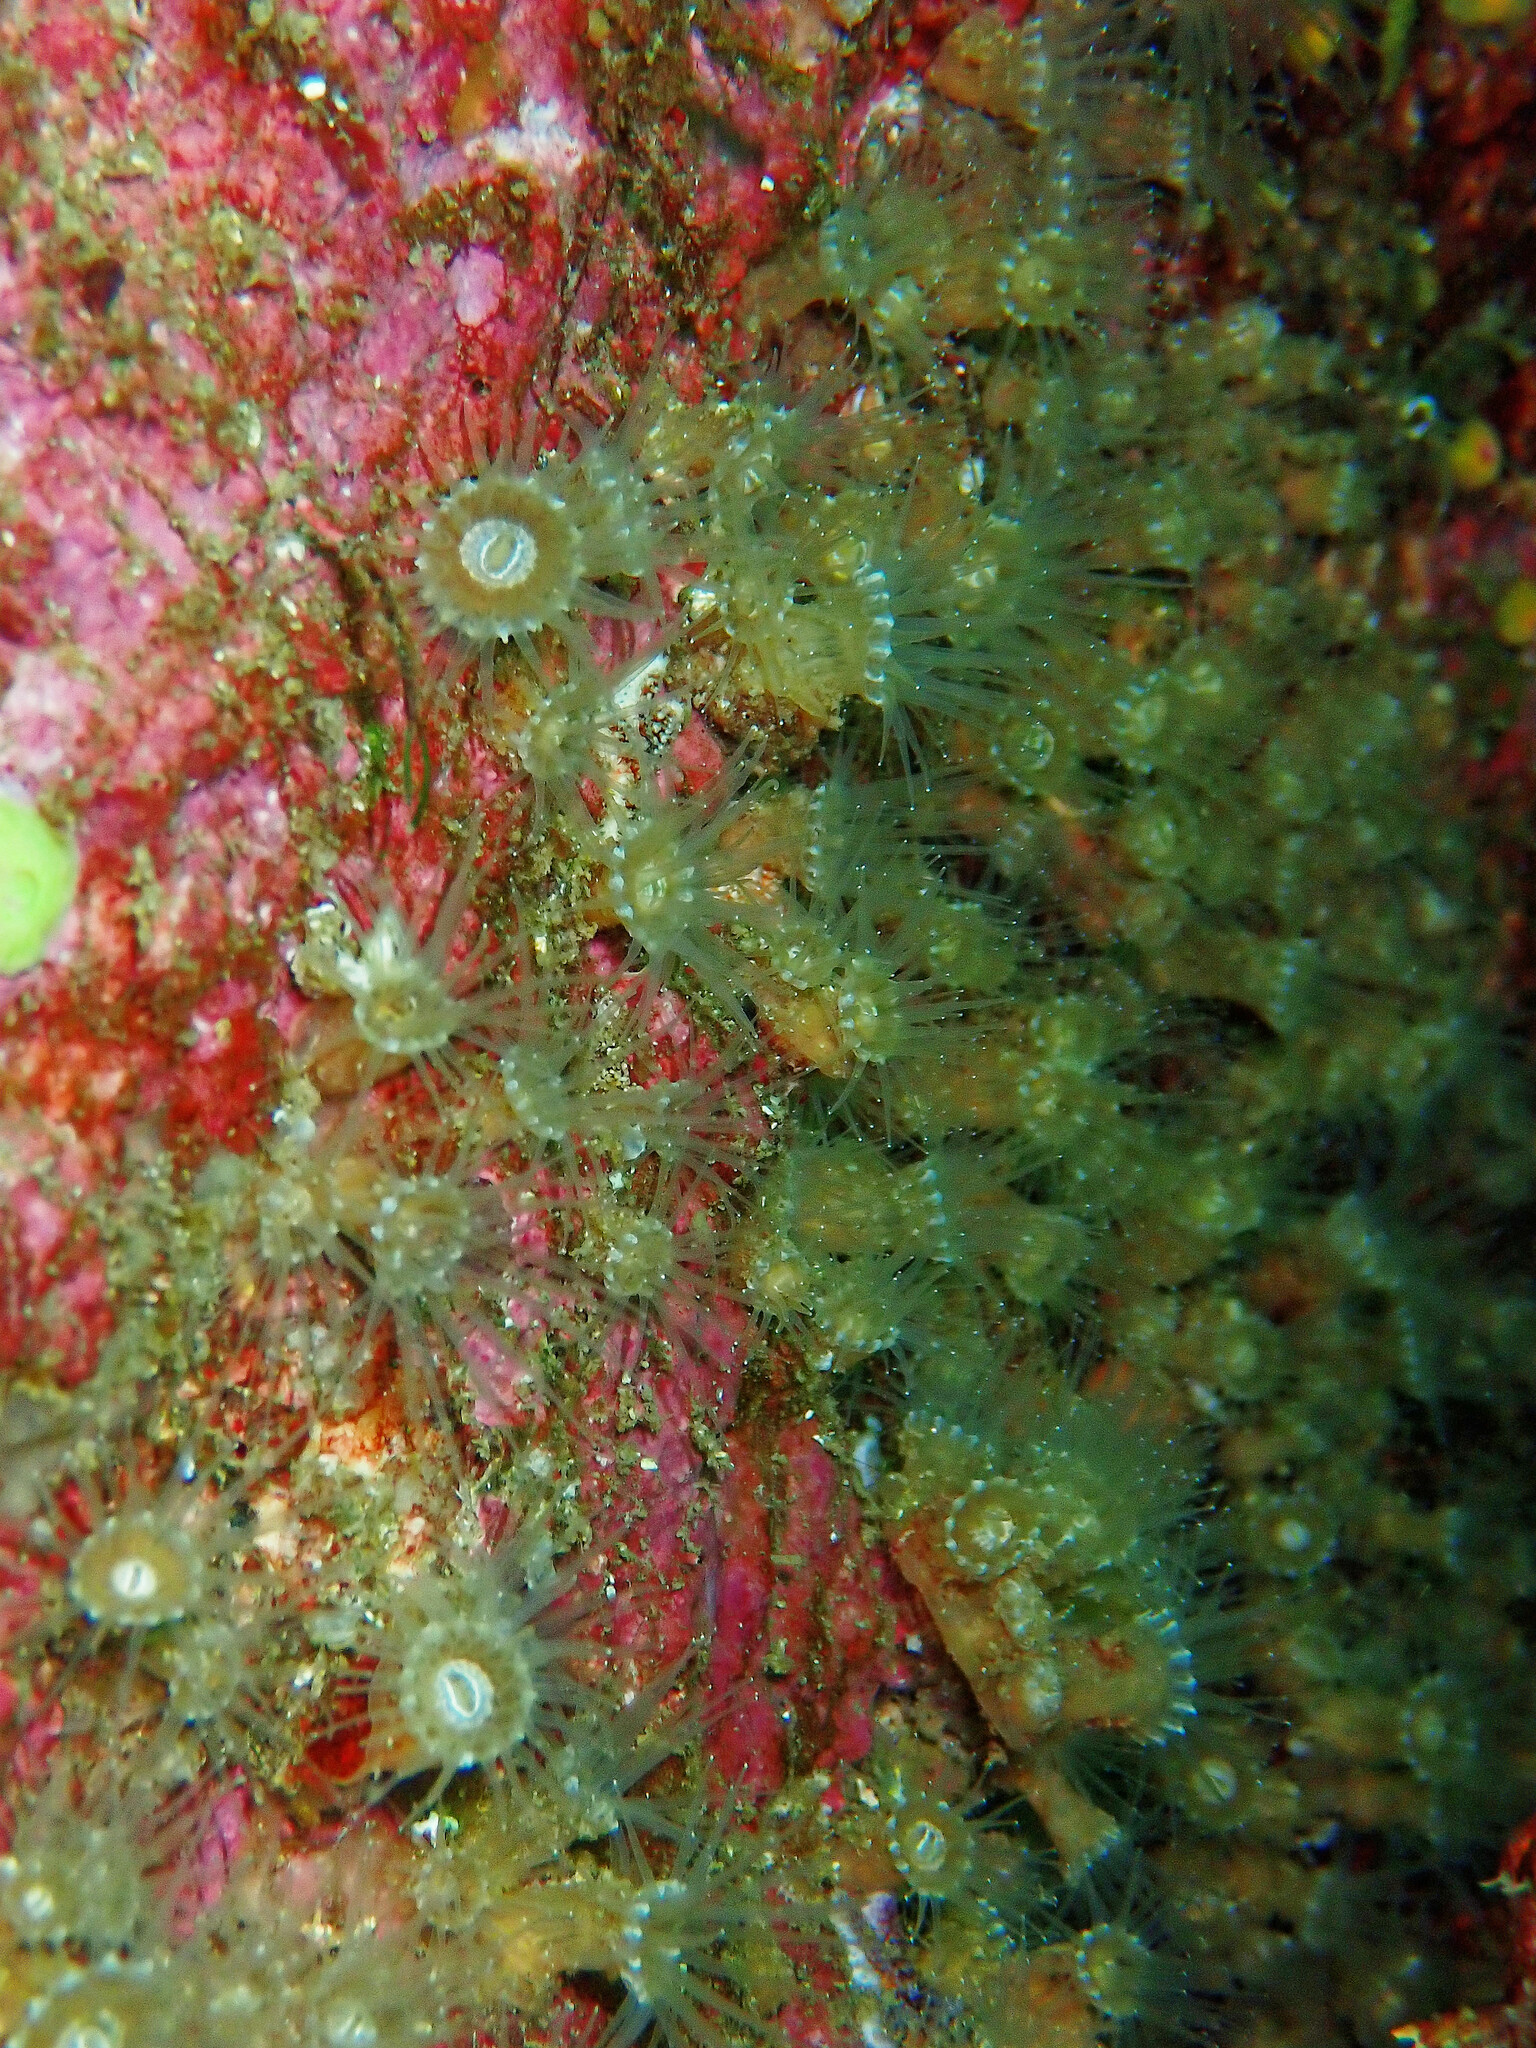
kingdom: Animalia
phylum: Cnidaria
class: Anthozoa
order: Zoantharia
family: Epizoanthidae
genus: Epizoanthus
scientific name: Epizoanthus couchii
